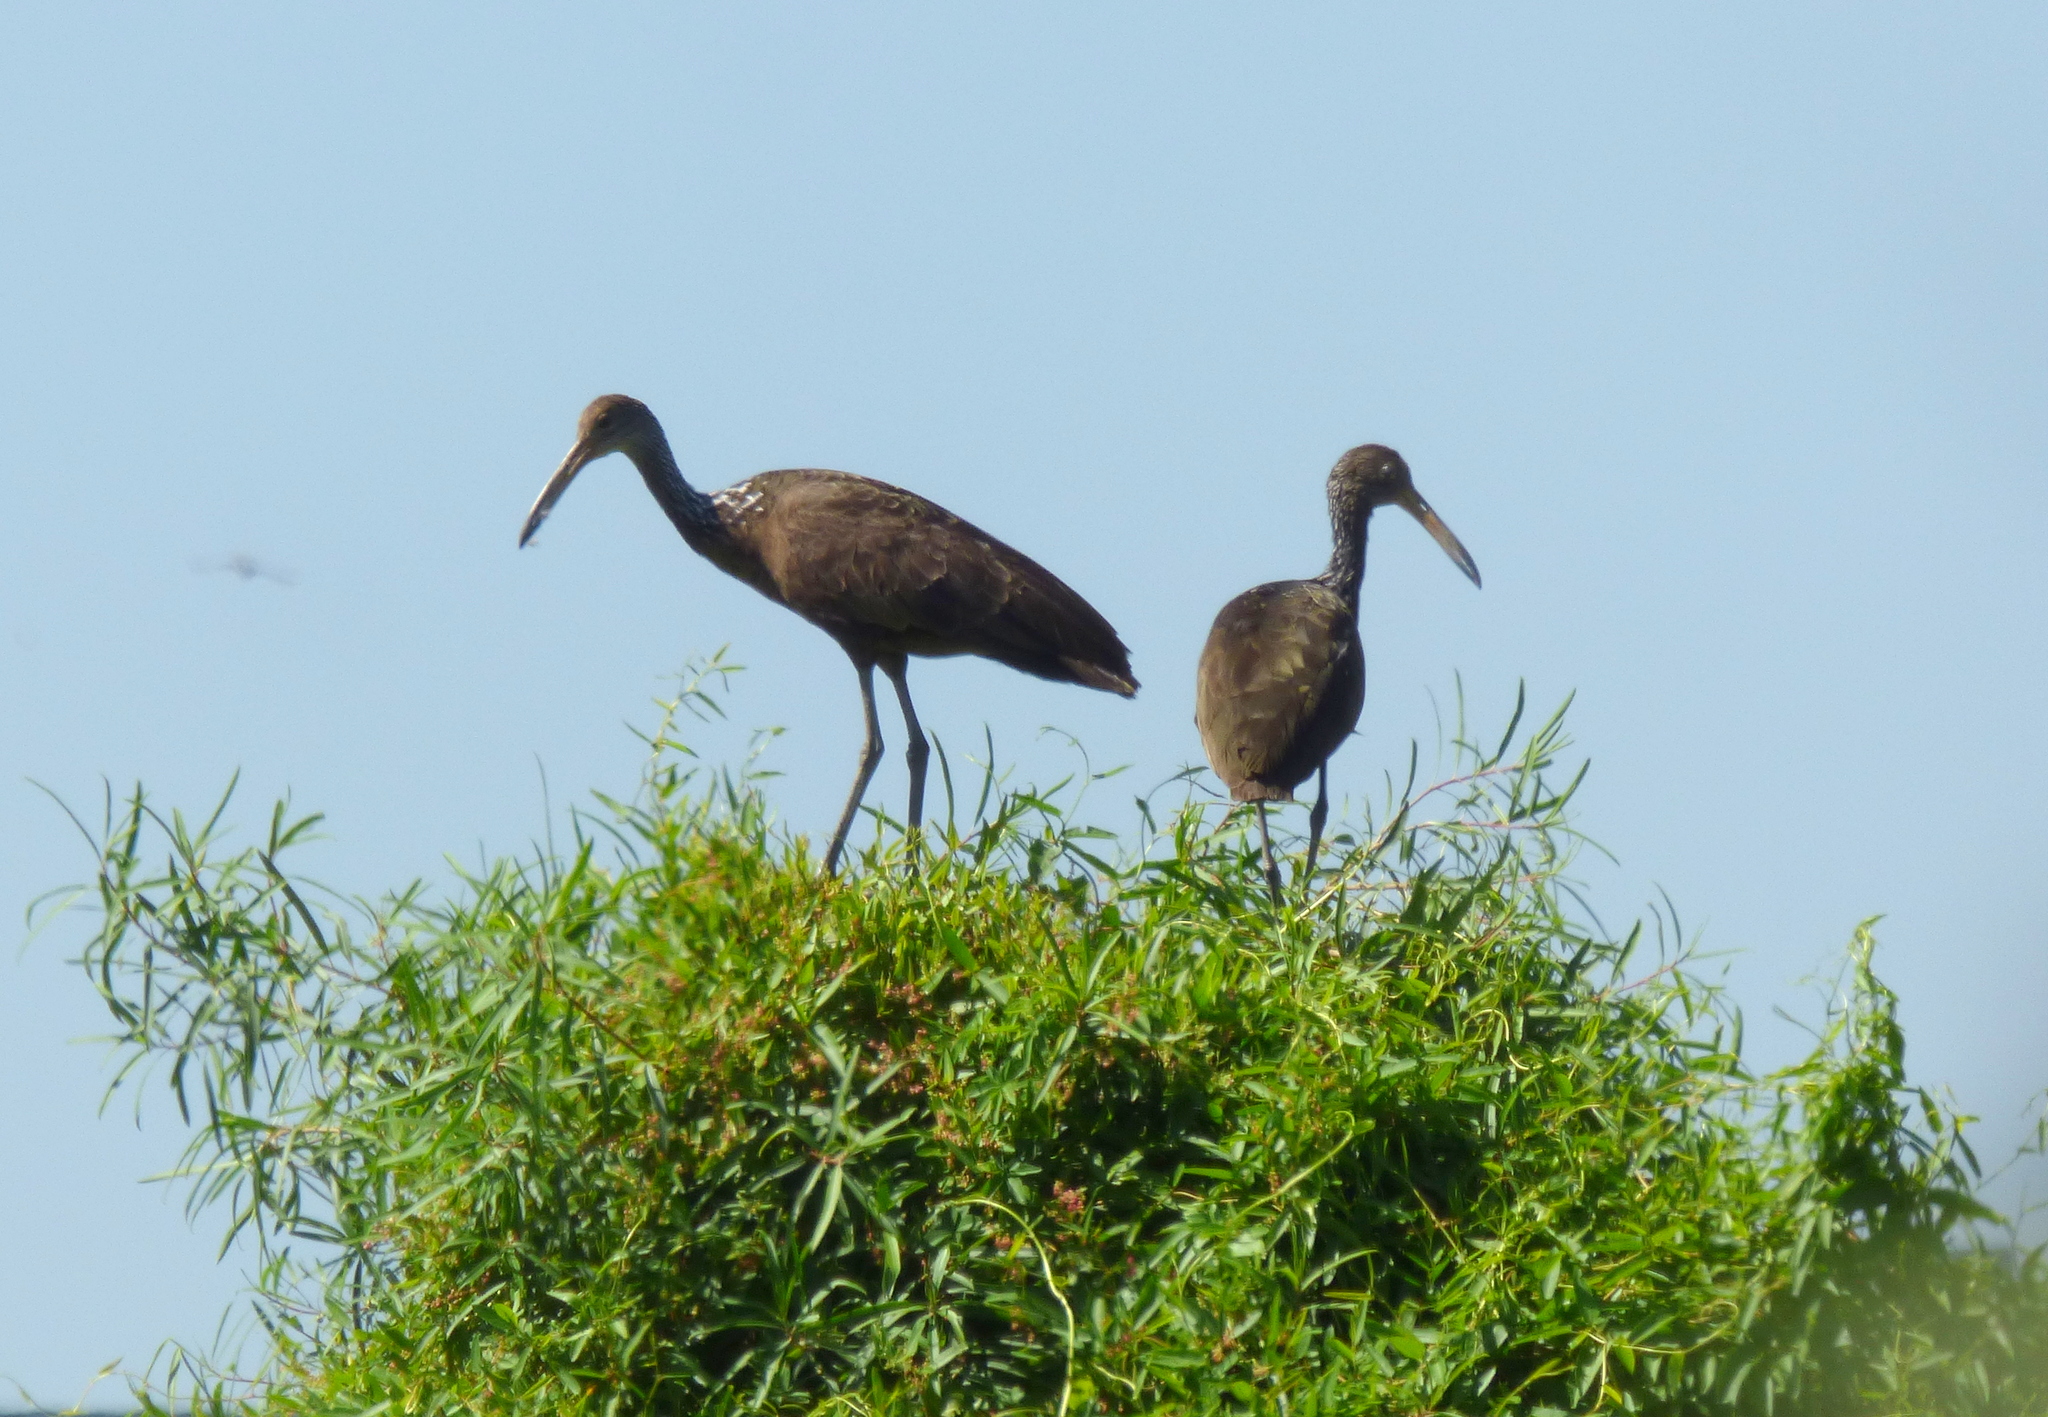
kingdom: Animalia
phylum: Chordata
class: Aves
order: Gruiformes
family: Aramidae
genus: Aramus
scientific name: Aramus guarauna
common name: Limpkin
